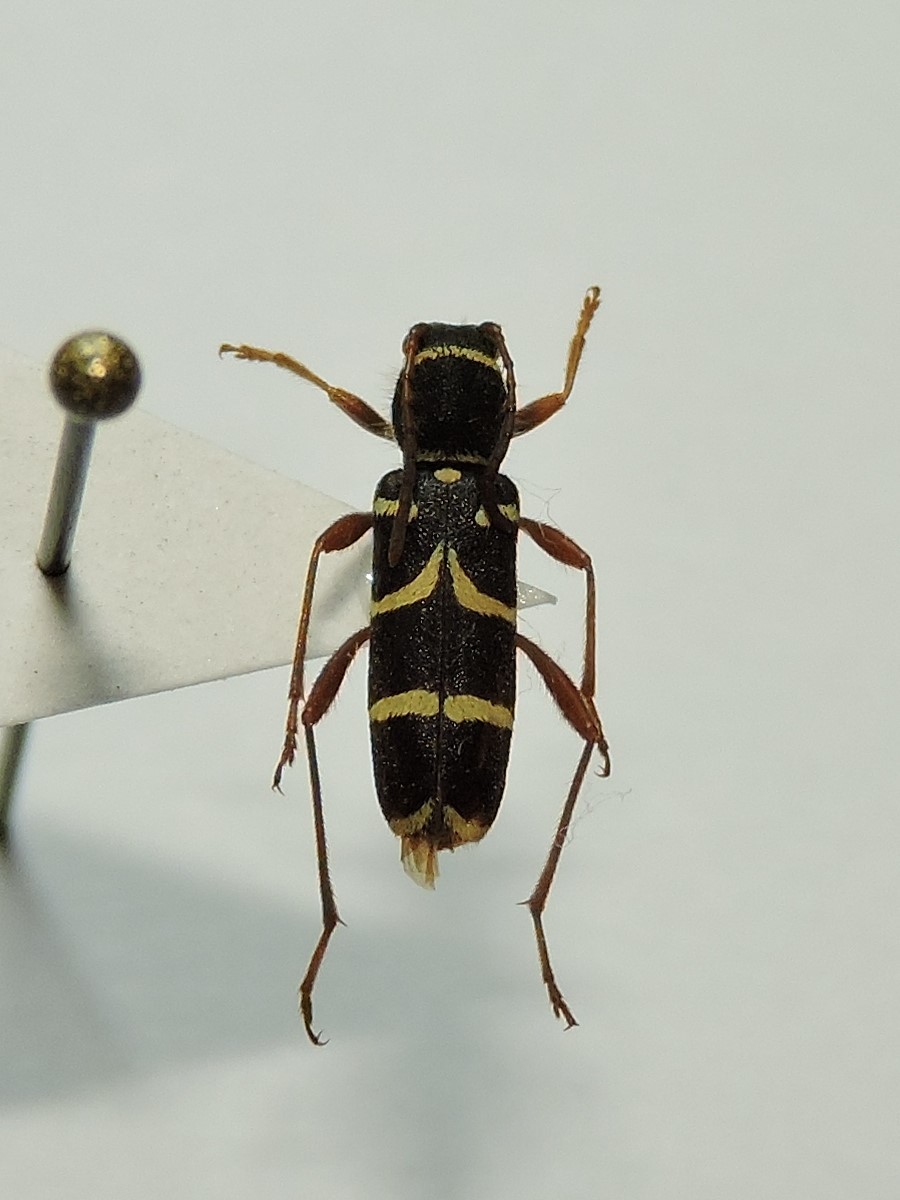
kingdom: Animalia
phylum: Arthropoda
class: Insecta
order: Coleoptera
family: Cerambycidae
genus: Clytus
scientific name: Clytus arietis
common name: Wasp beetle
